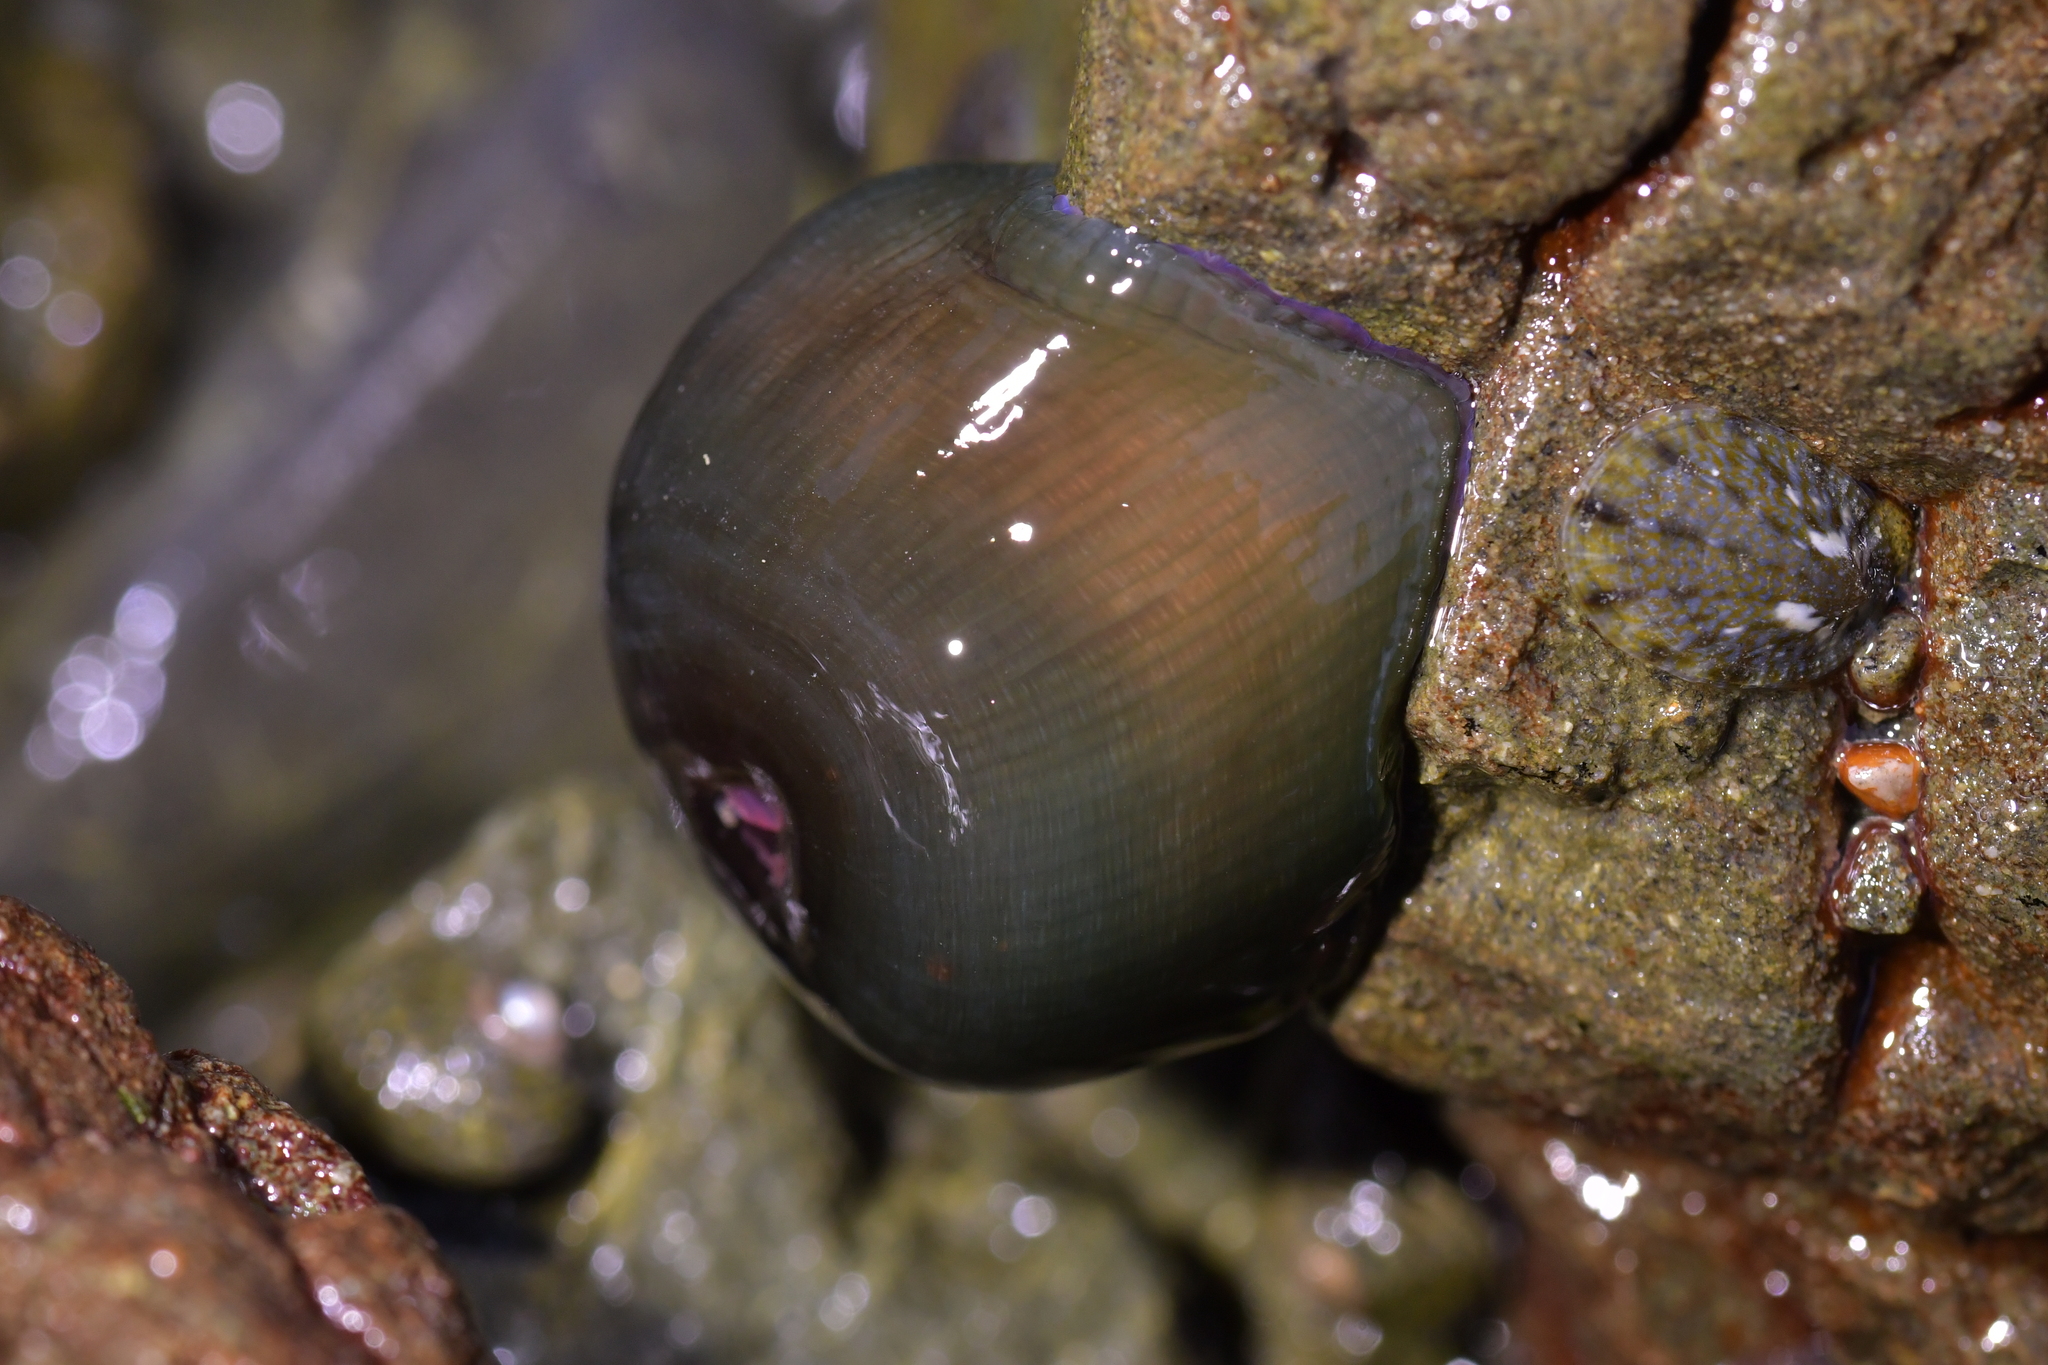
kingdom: Animalia
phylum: Cnidaria
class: Anthozoa
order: Actiniaria
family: Actiniidae
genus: Actinia
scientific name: Actinia tenebrosa
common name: Waratah anemone
